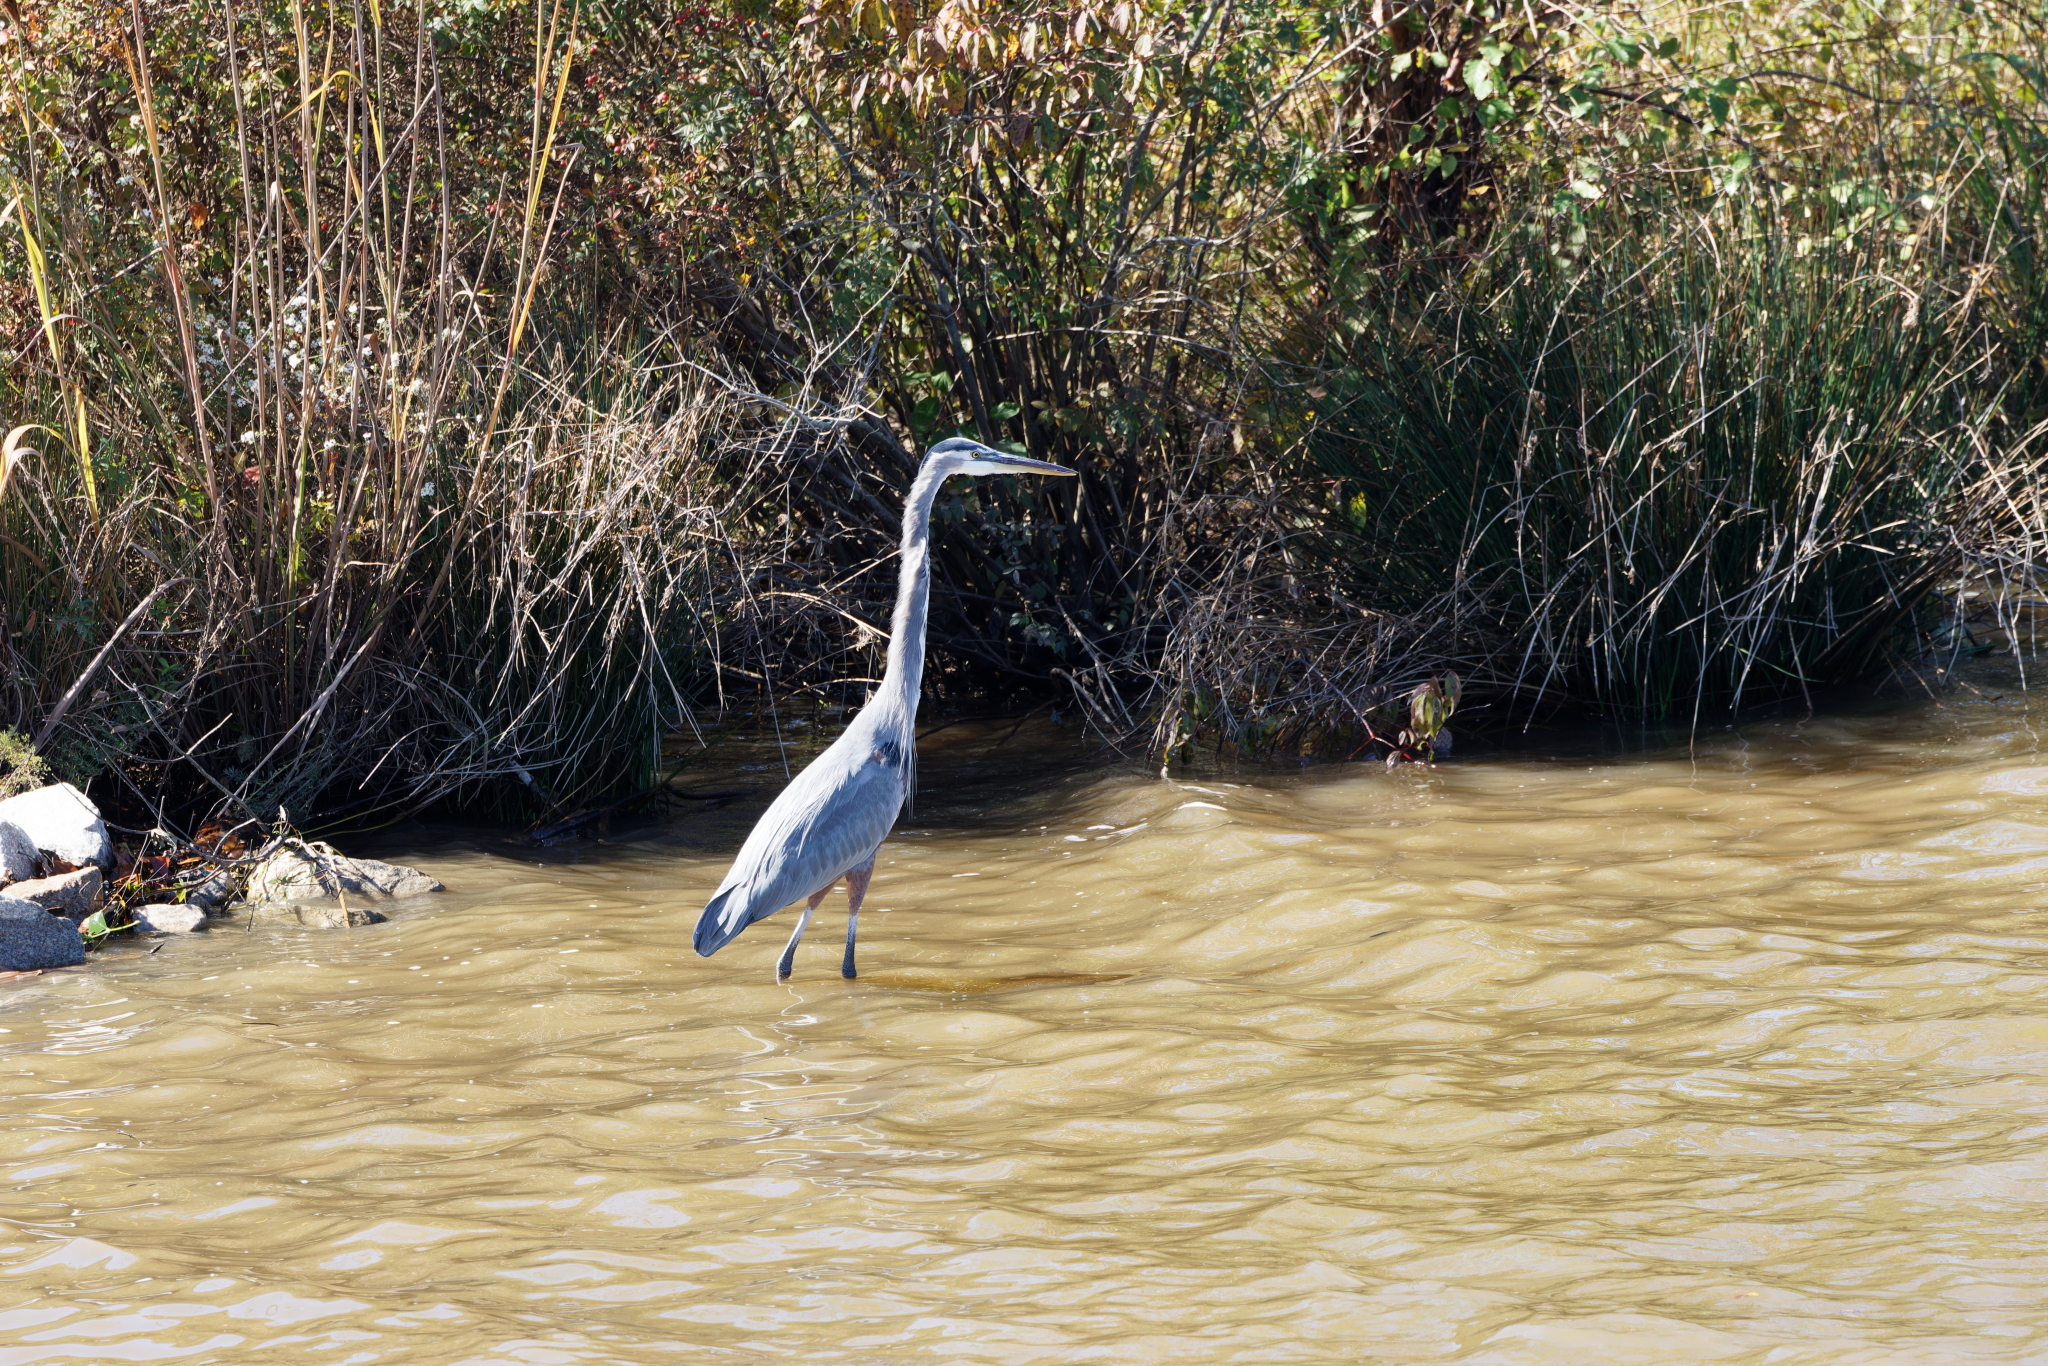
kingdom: Animalia
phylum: Chordata
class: Aves
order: Pelecaniformes
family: Ardeidae
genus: Ardea
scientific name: Ardea herodias
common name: Great blue heron
